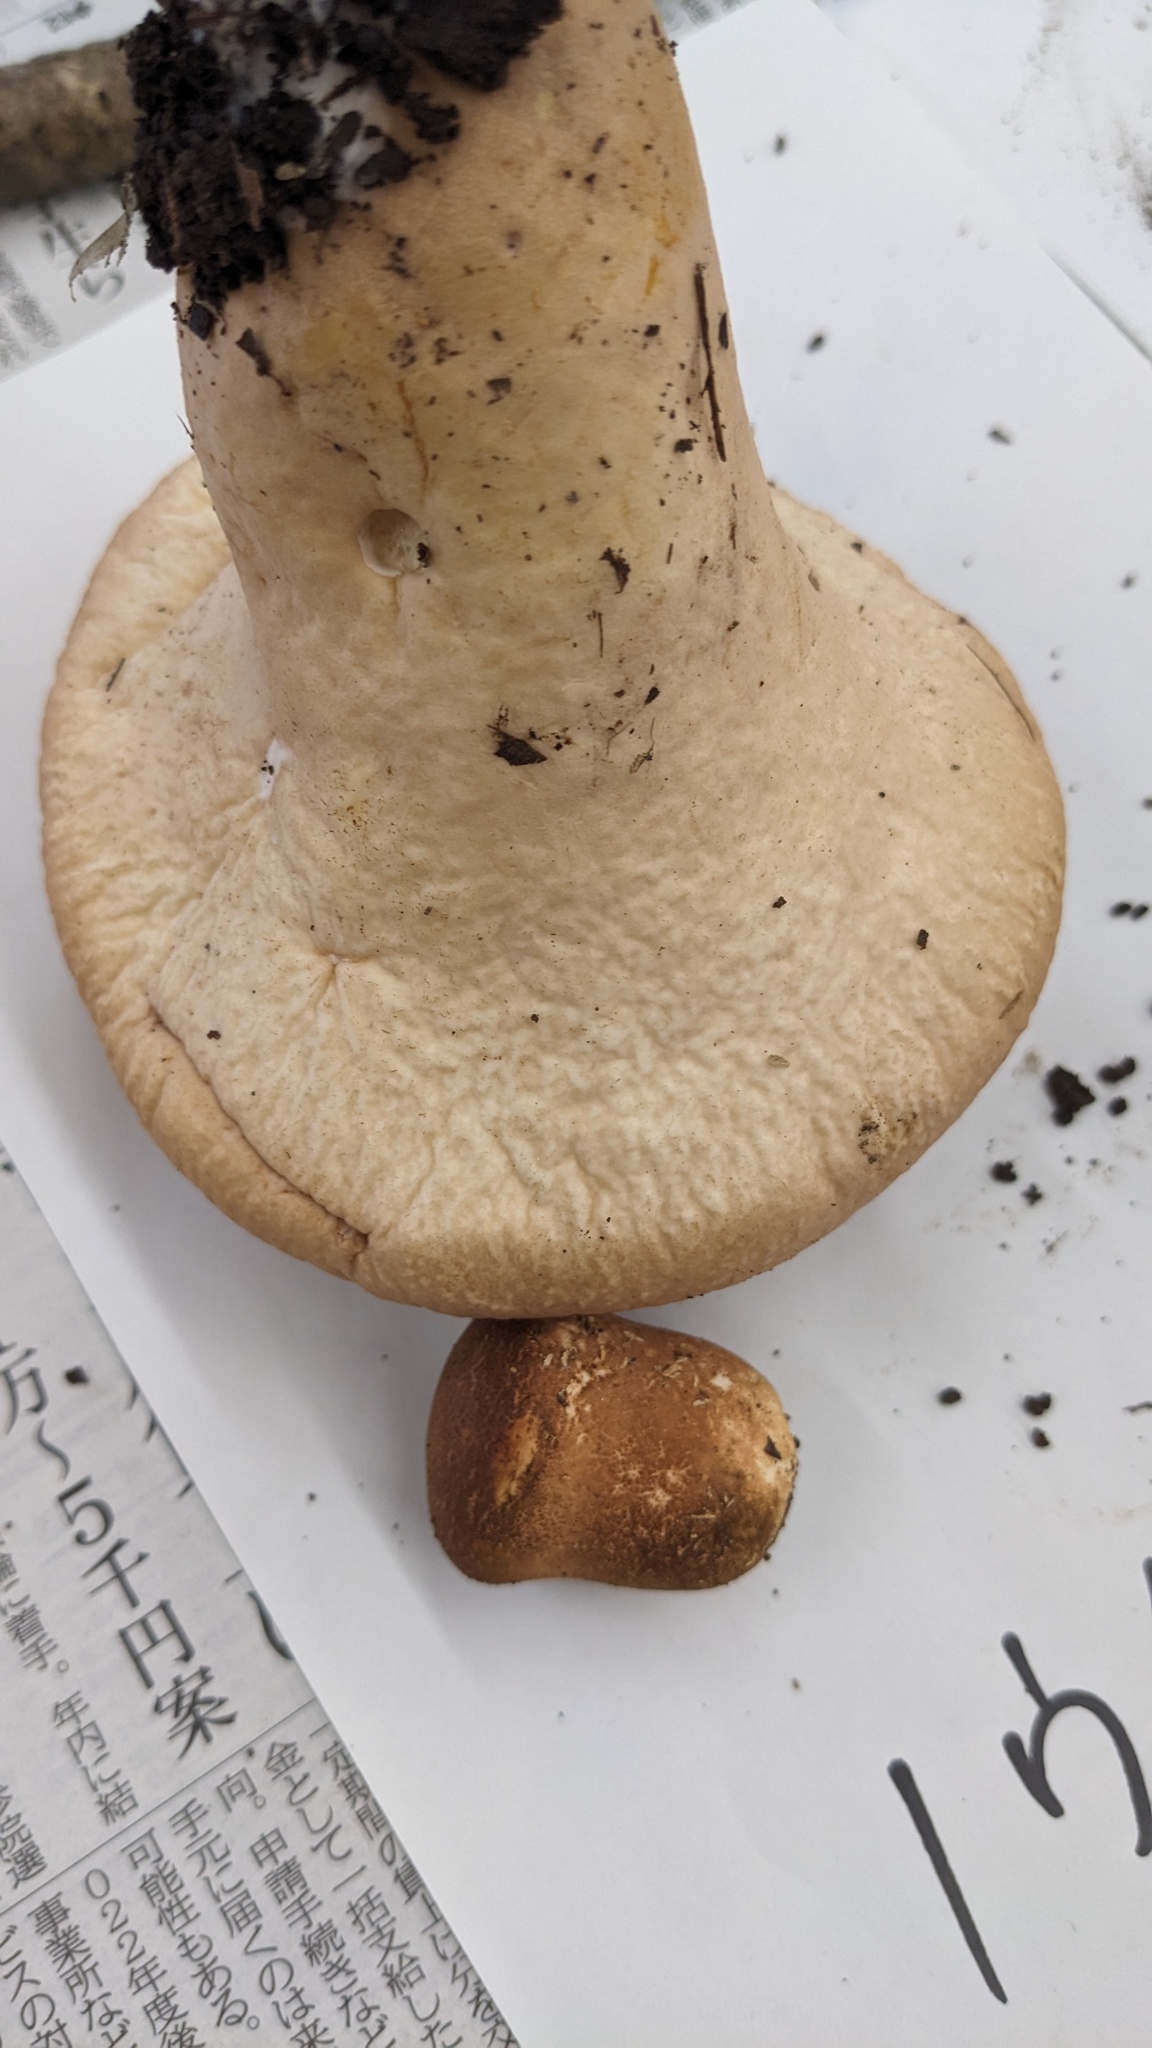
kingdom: Fungi
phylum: Basidiomycota
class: Agaricomycetes
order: Agaricales
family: Lycoperdaceae
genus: Calvatia
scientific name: Calvatia craniiformis
